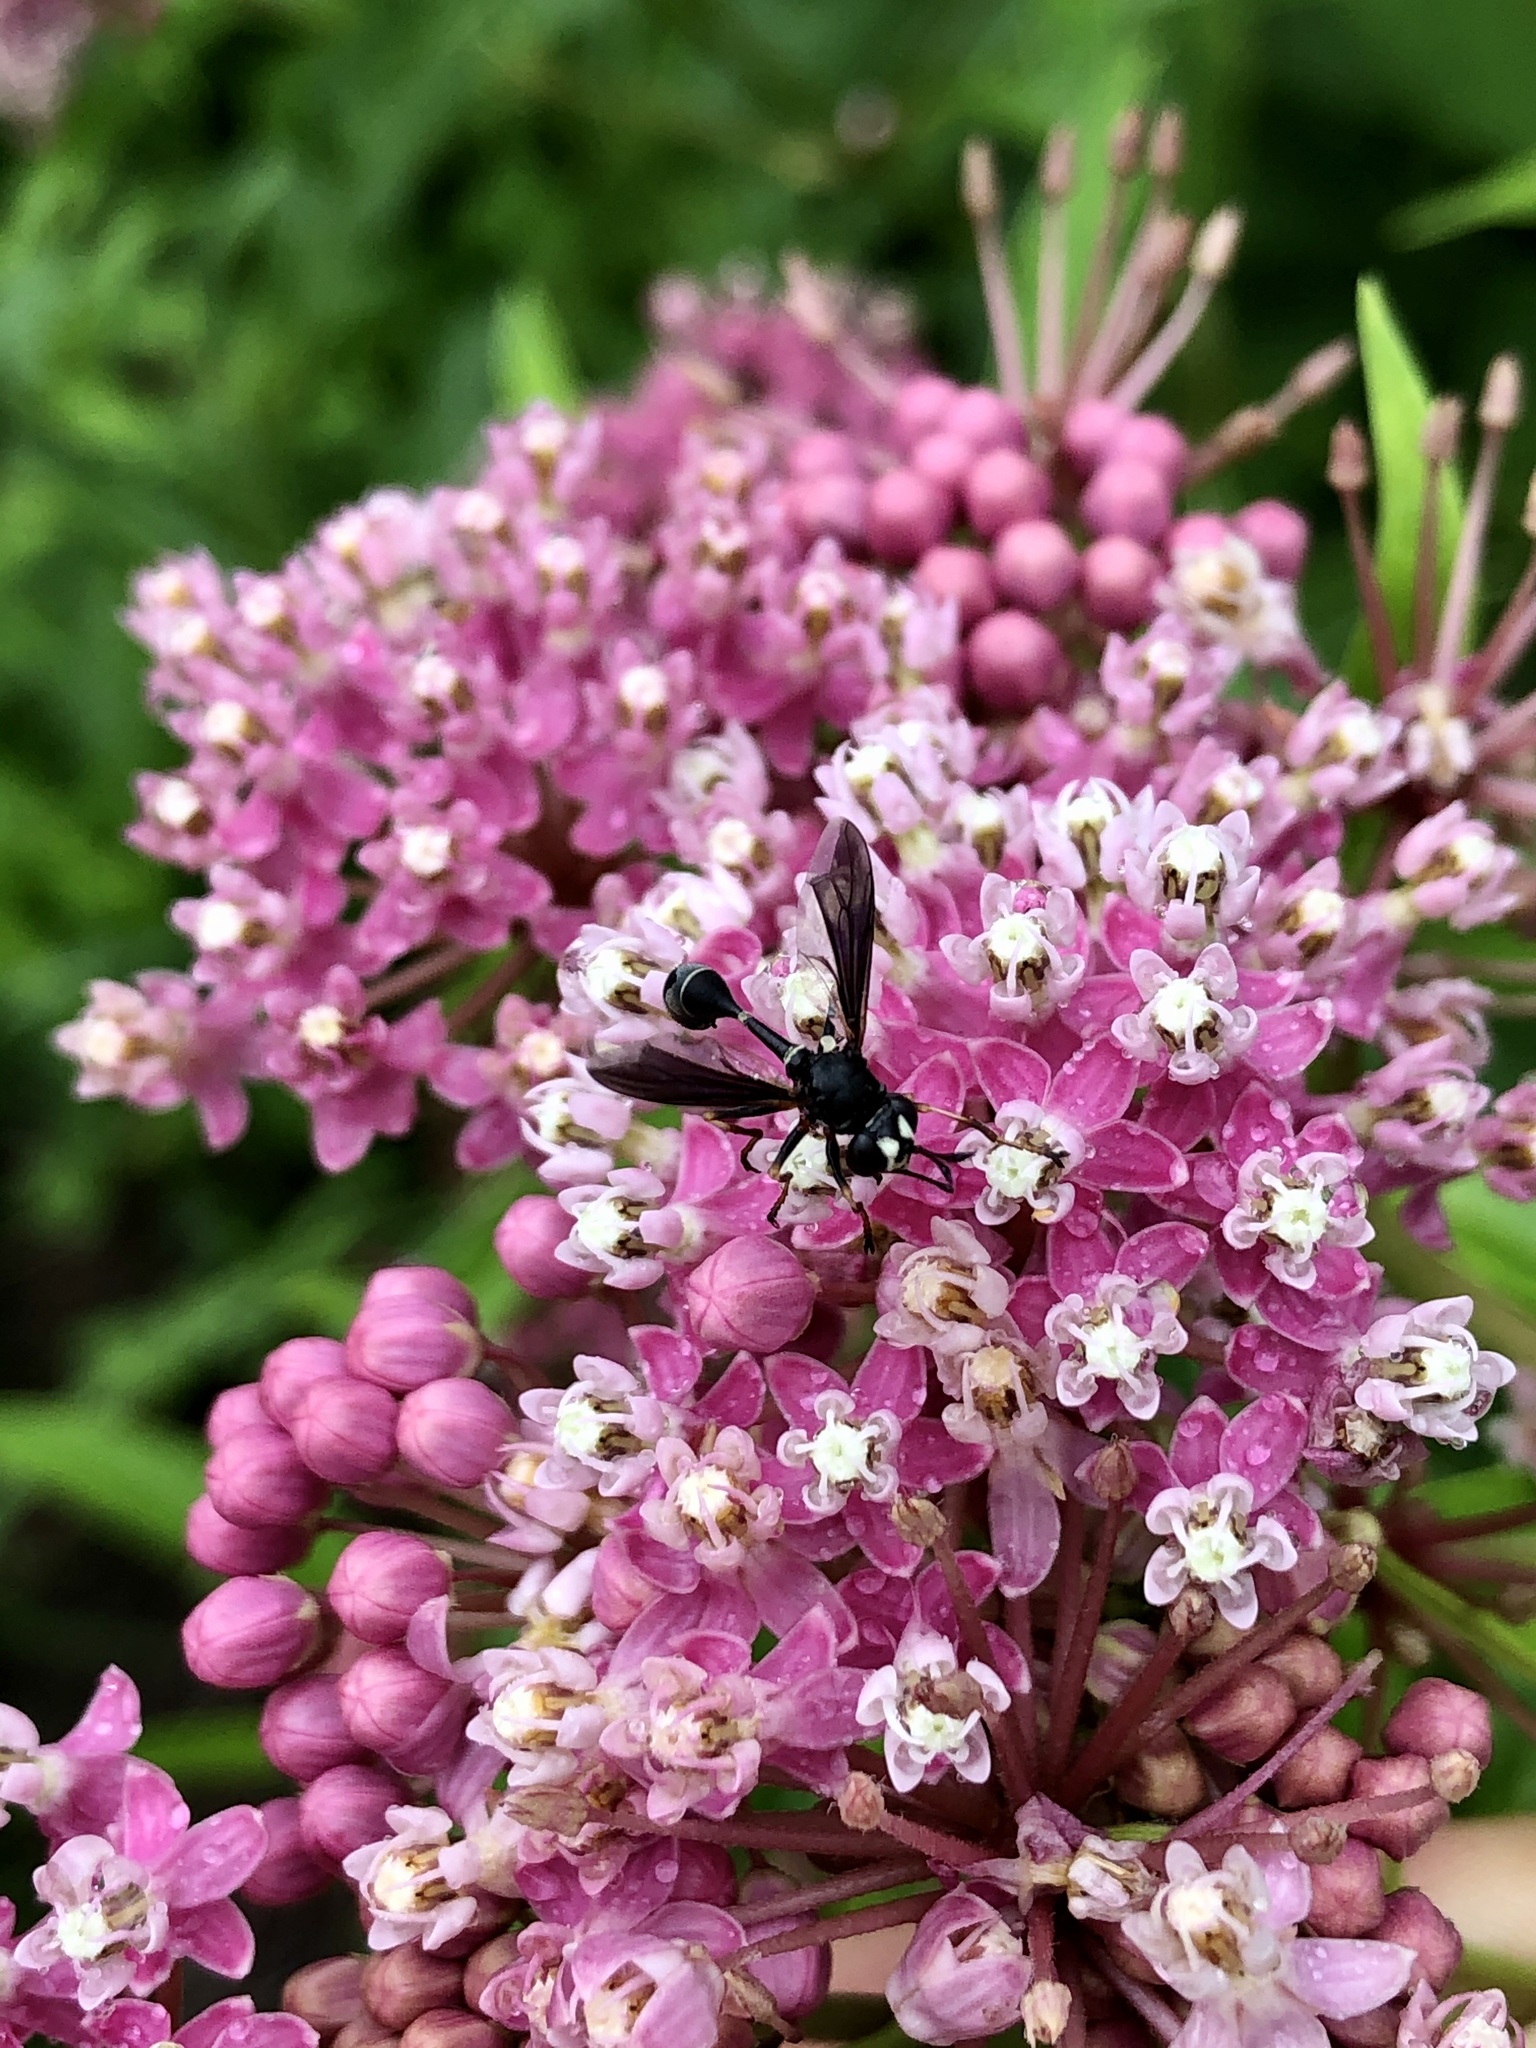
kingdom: Animalia
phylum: Arthropoda
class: Insecta
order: Diptera
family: Conopidae
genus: Physocephala
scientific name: Physocephala tibialis
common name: Common eastern physocephala
